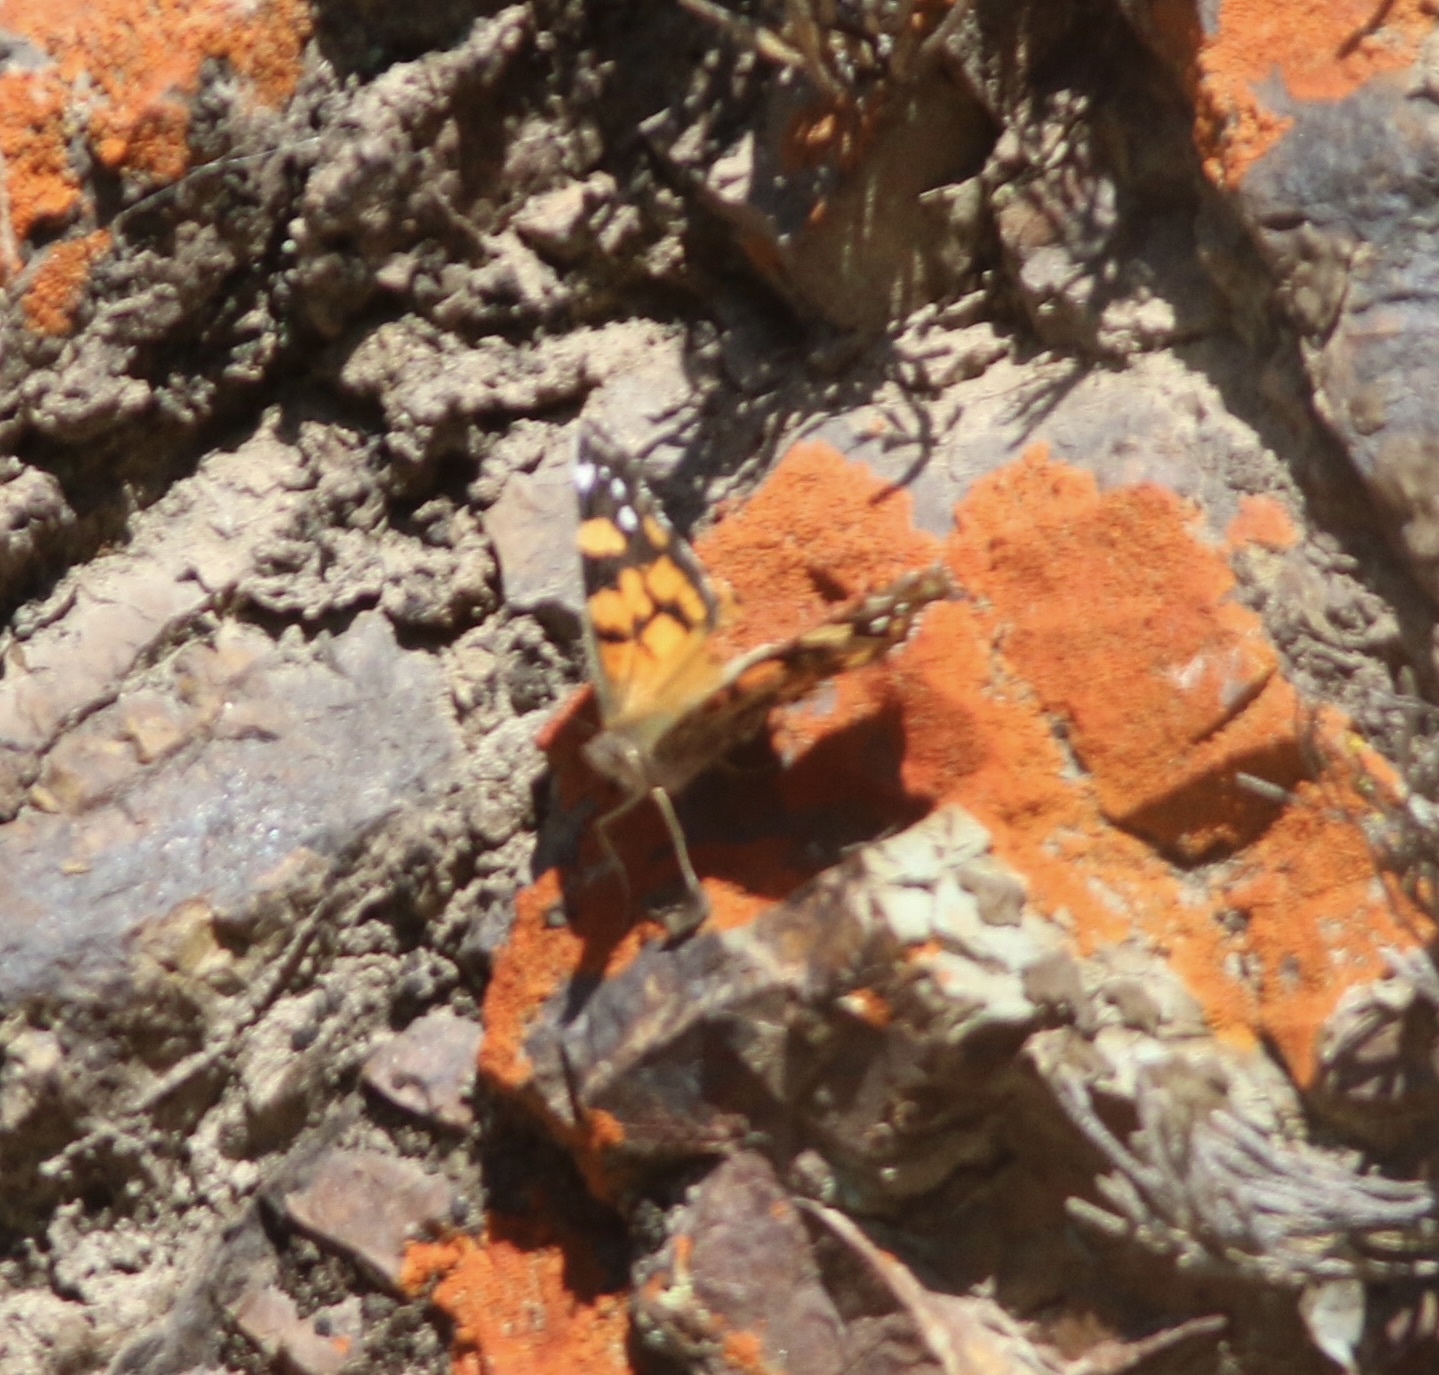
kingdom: Animalia
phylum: Arthropoda
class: Insecta
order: Lepidoptera
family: Nymphalidae
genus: Vanessa
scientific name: Vanessa annabella
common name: West coast lady
